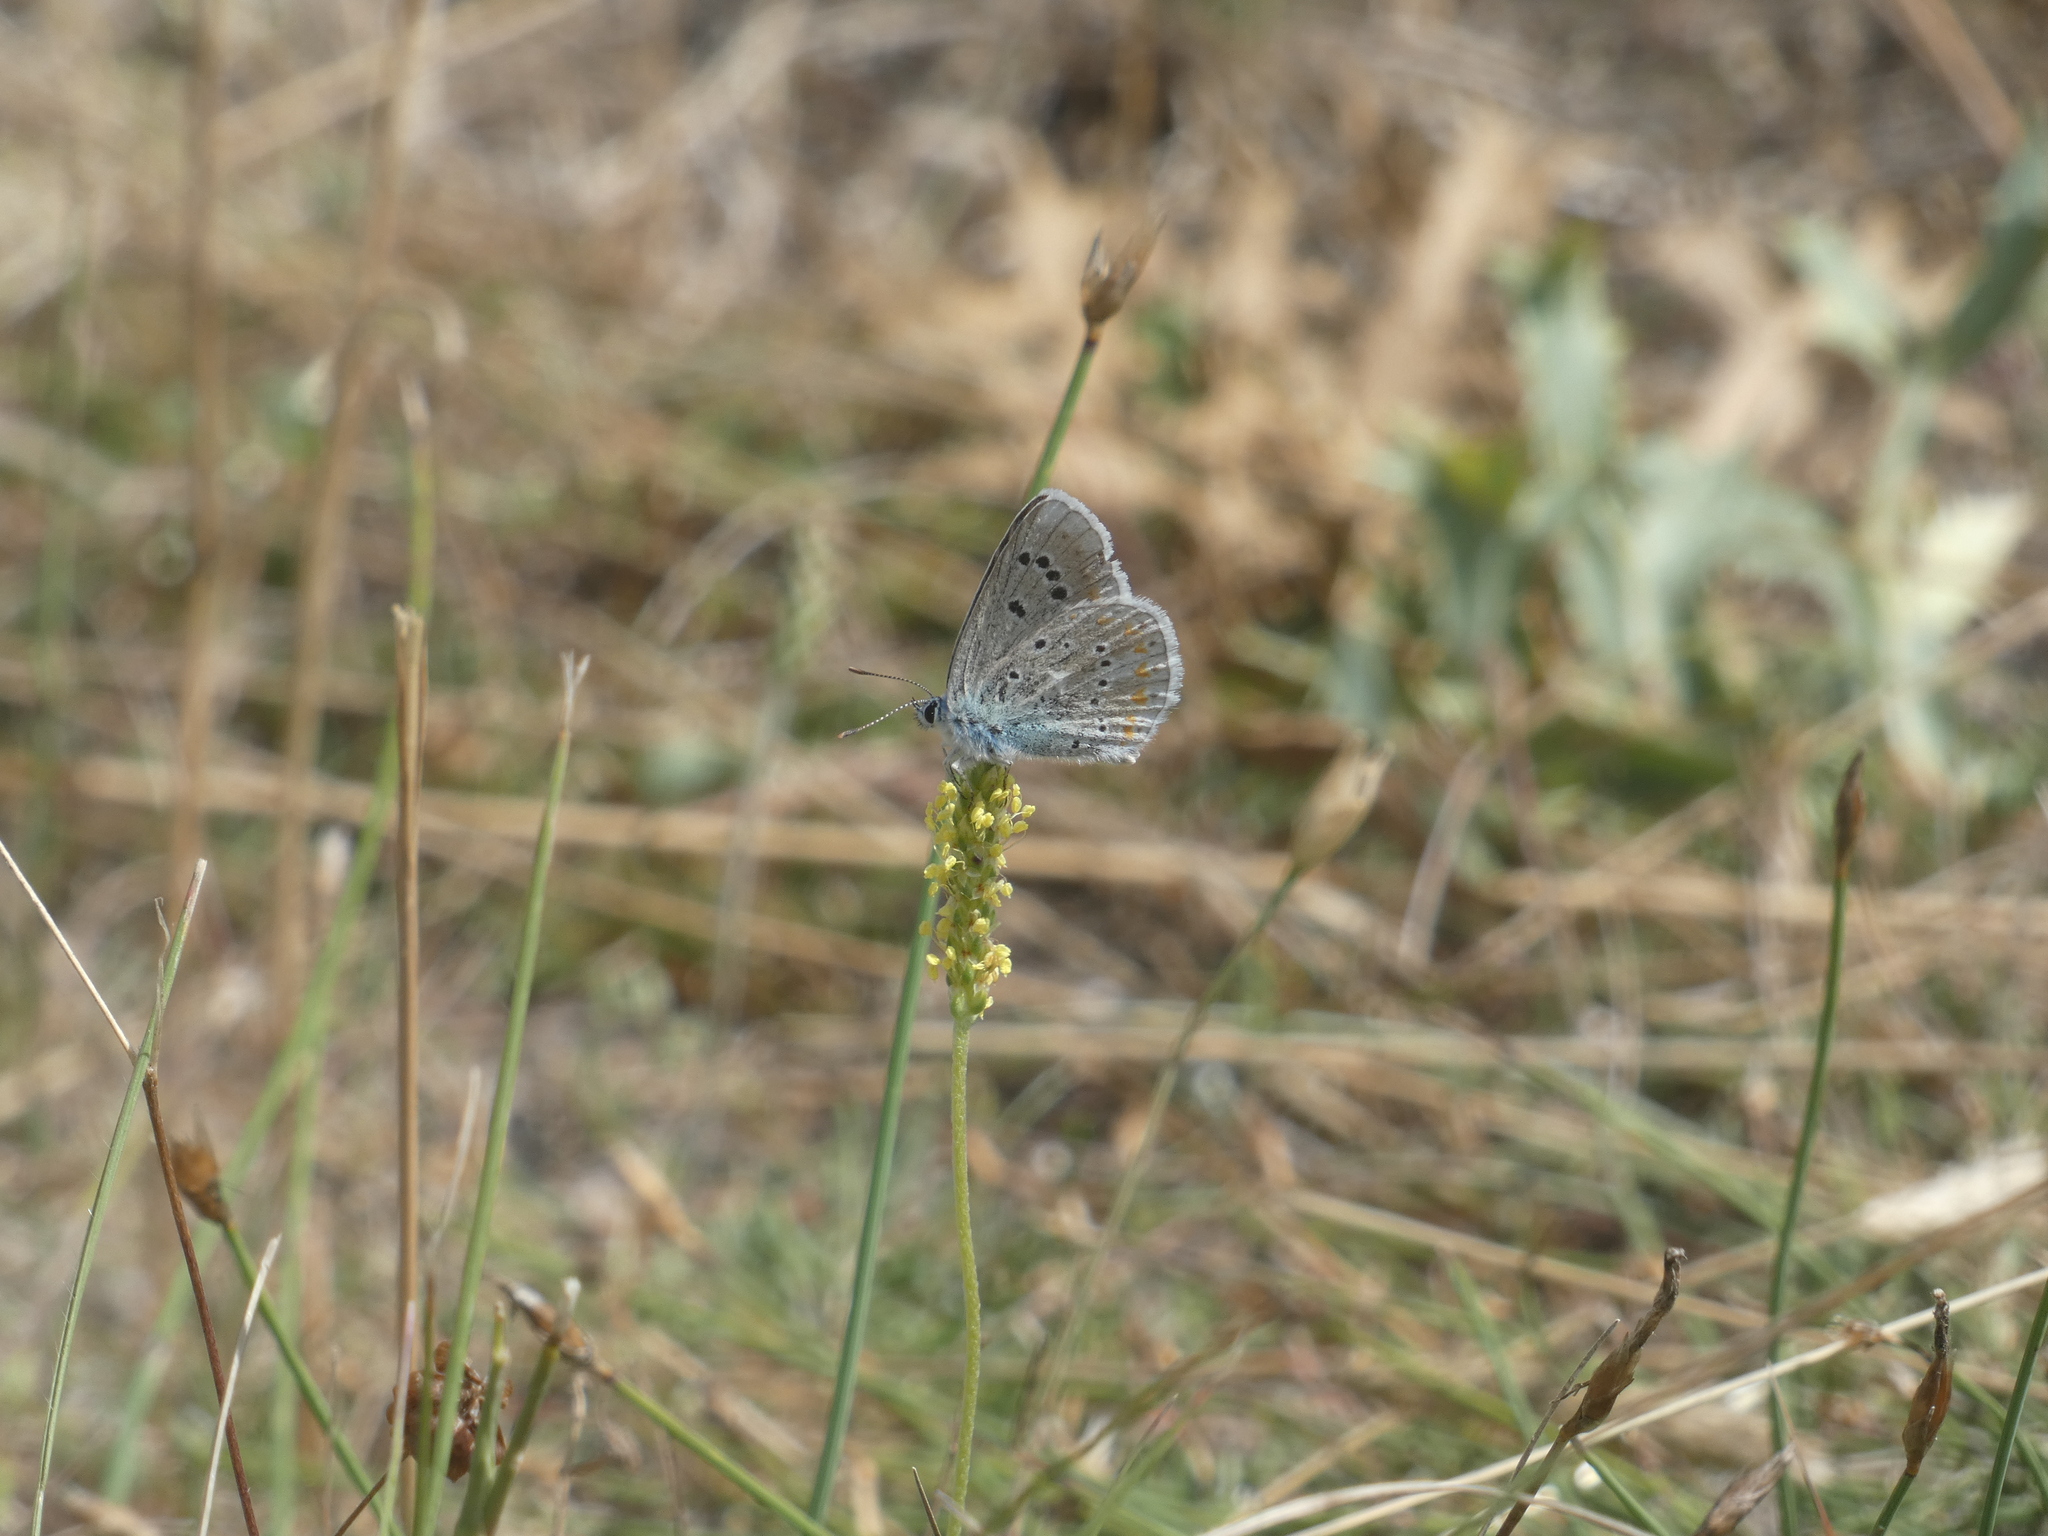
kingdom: Animalia
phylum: Arthropoda
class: Insecta
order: Lepidoptera
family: Lycaenidae
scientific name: Lycaenidae
